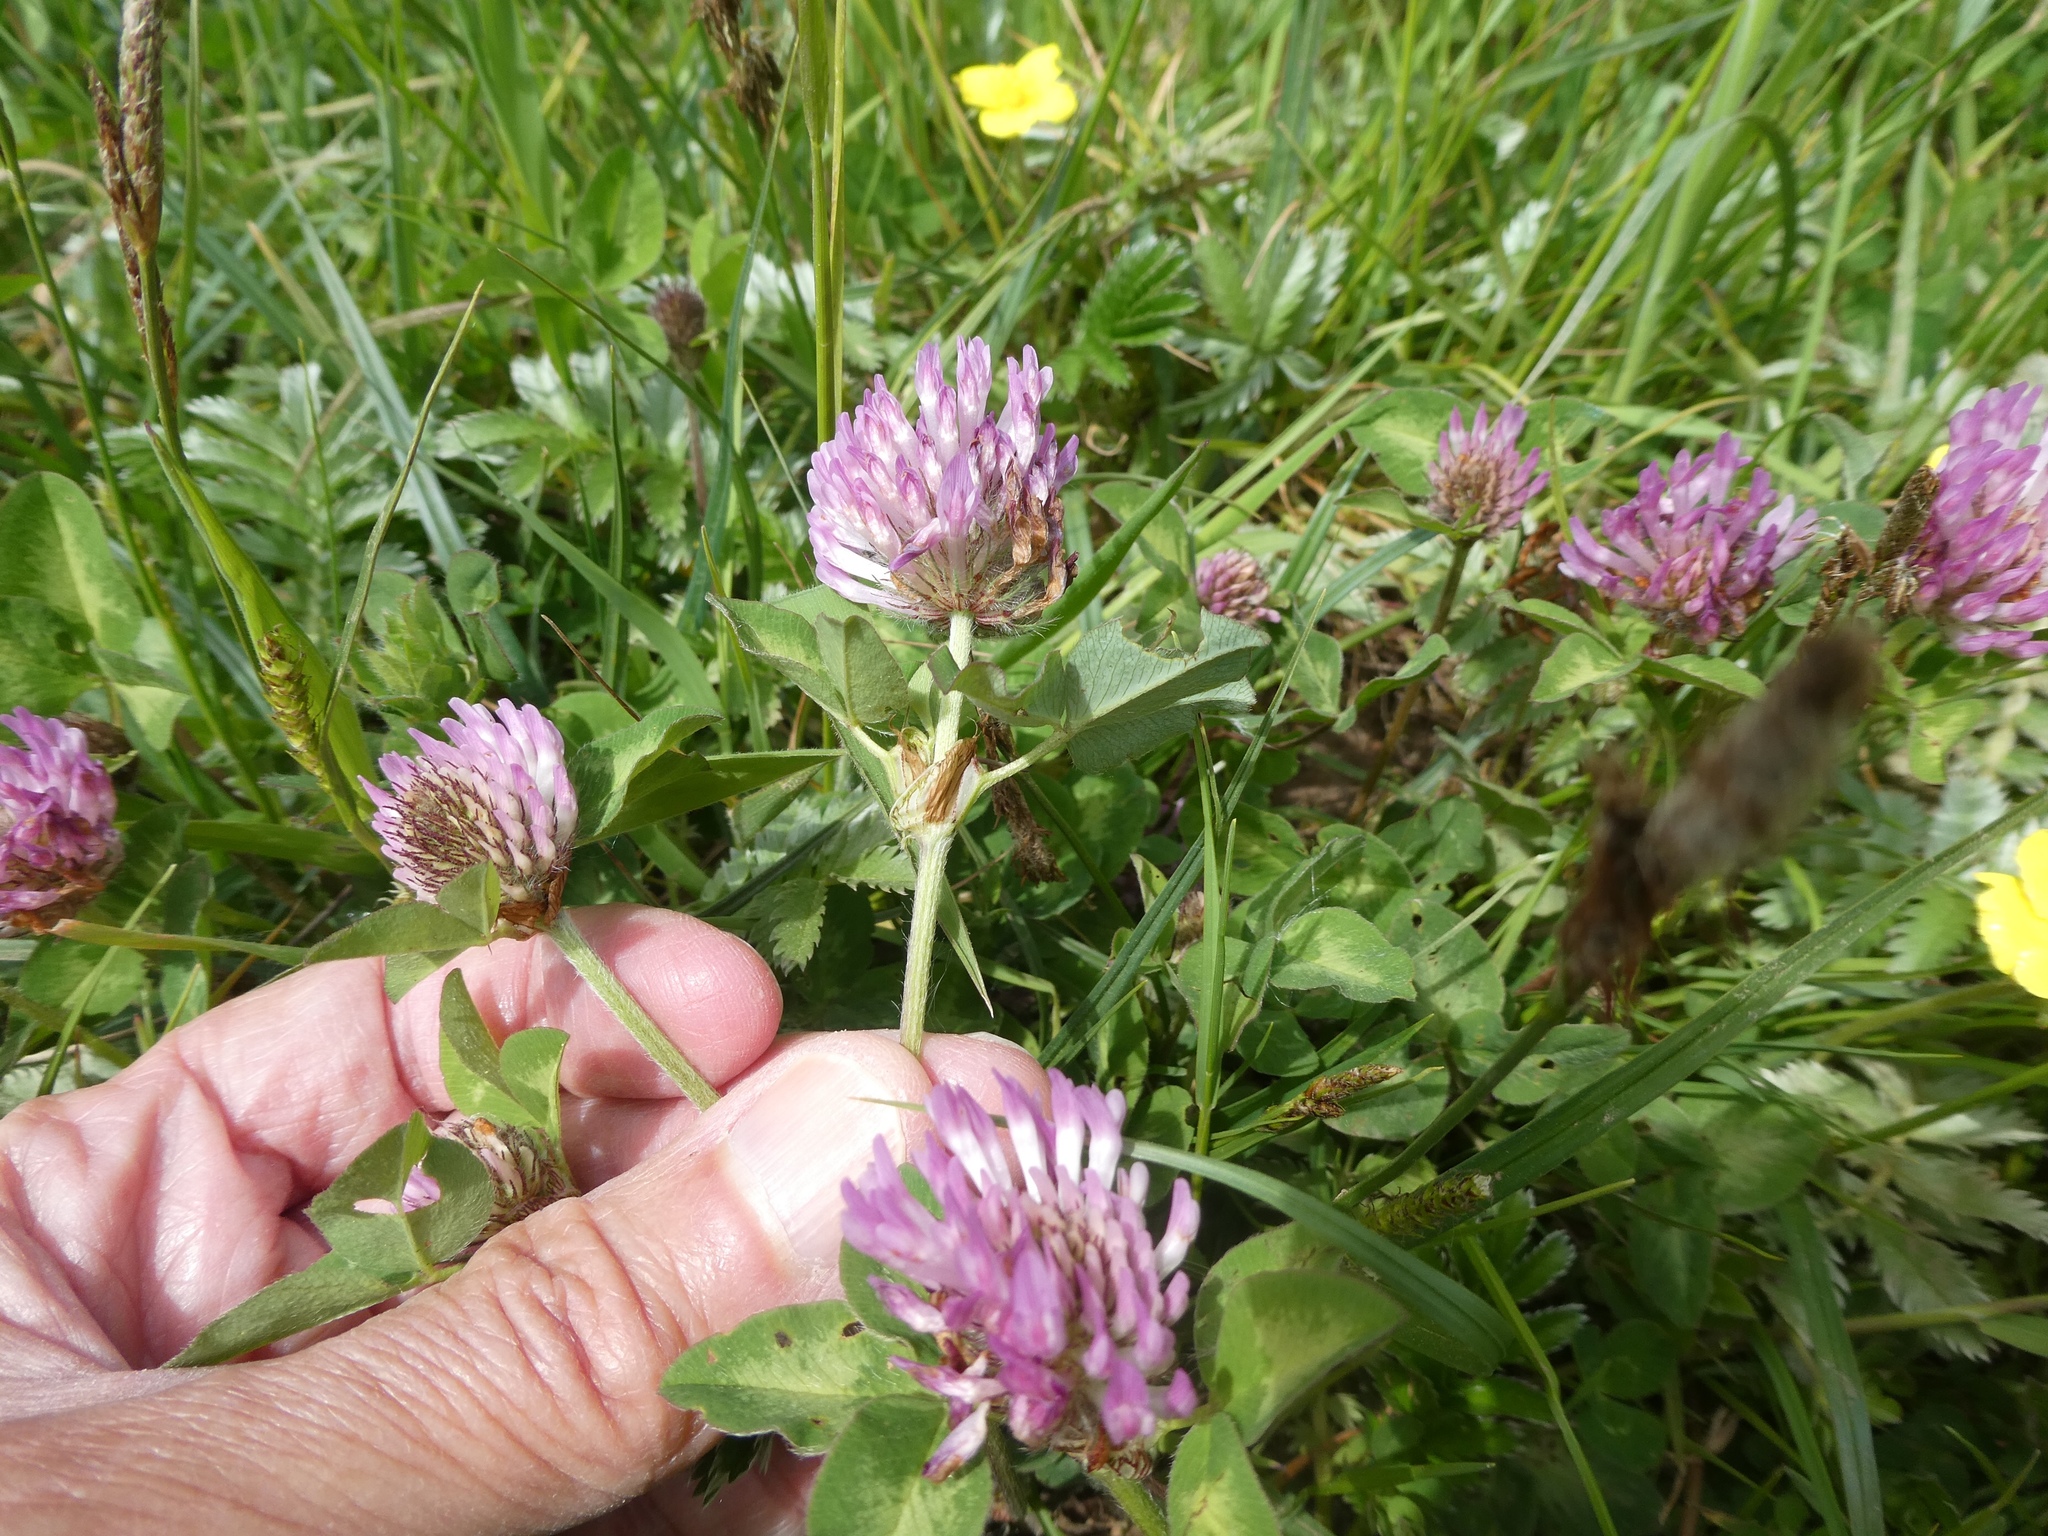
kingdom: Plantae
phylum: Tracheophyta
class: Magnoliopsida
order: Fabales
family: Fabaceae
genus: Trifolium
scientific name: Trifolium pratense
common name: Red clover
